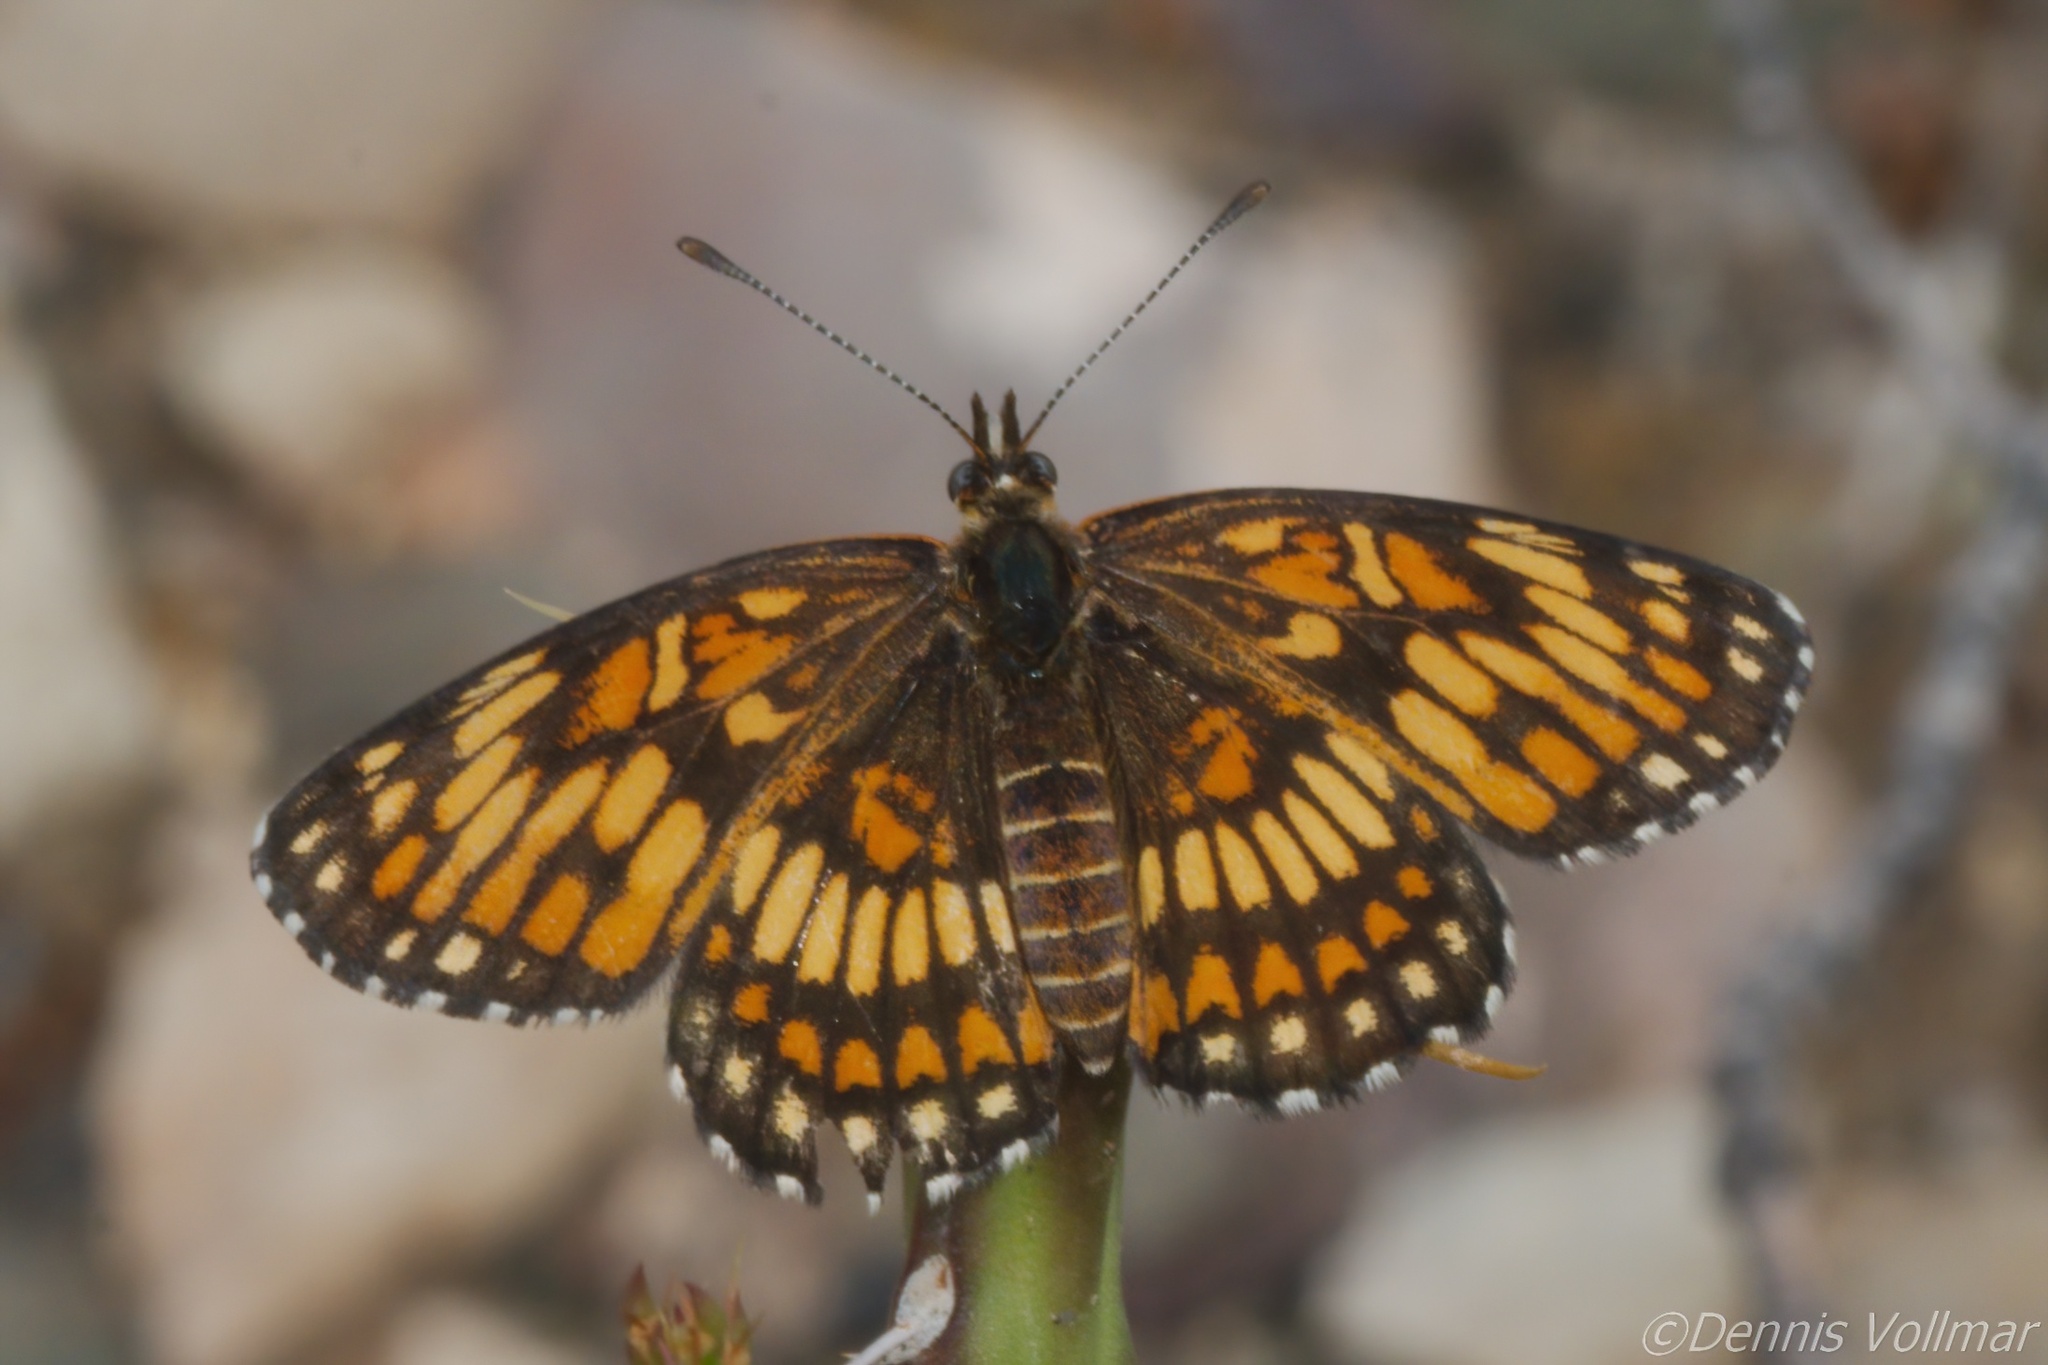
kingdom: Animalia
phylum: Arthropoda
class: Insecta
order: Lepidoptera
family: Nymphalidae
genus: Thessalia
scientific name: Thessalia theona
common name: Nymphalid moth
